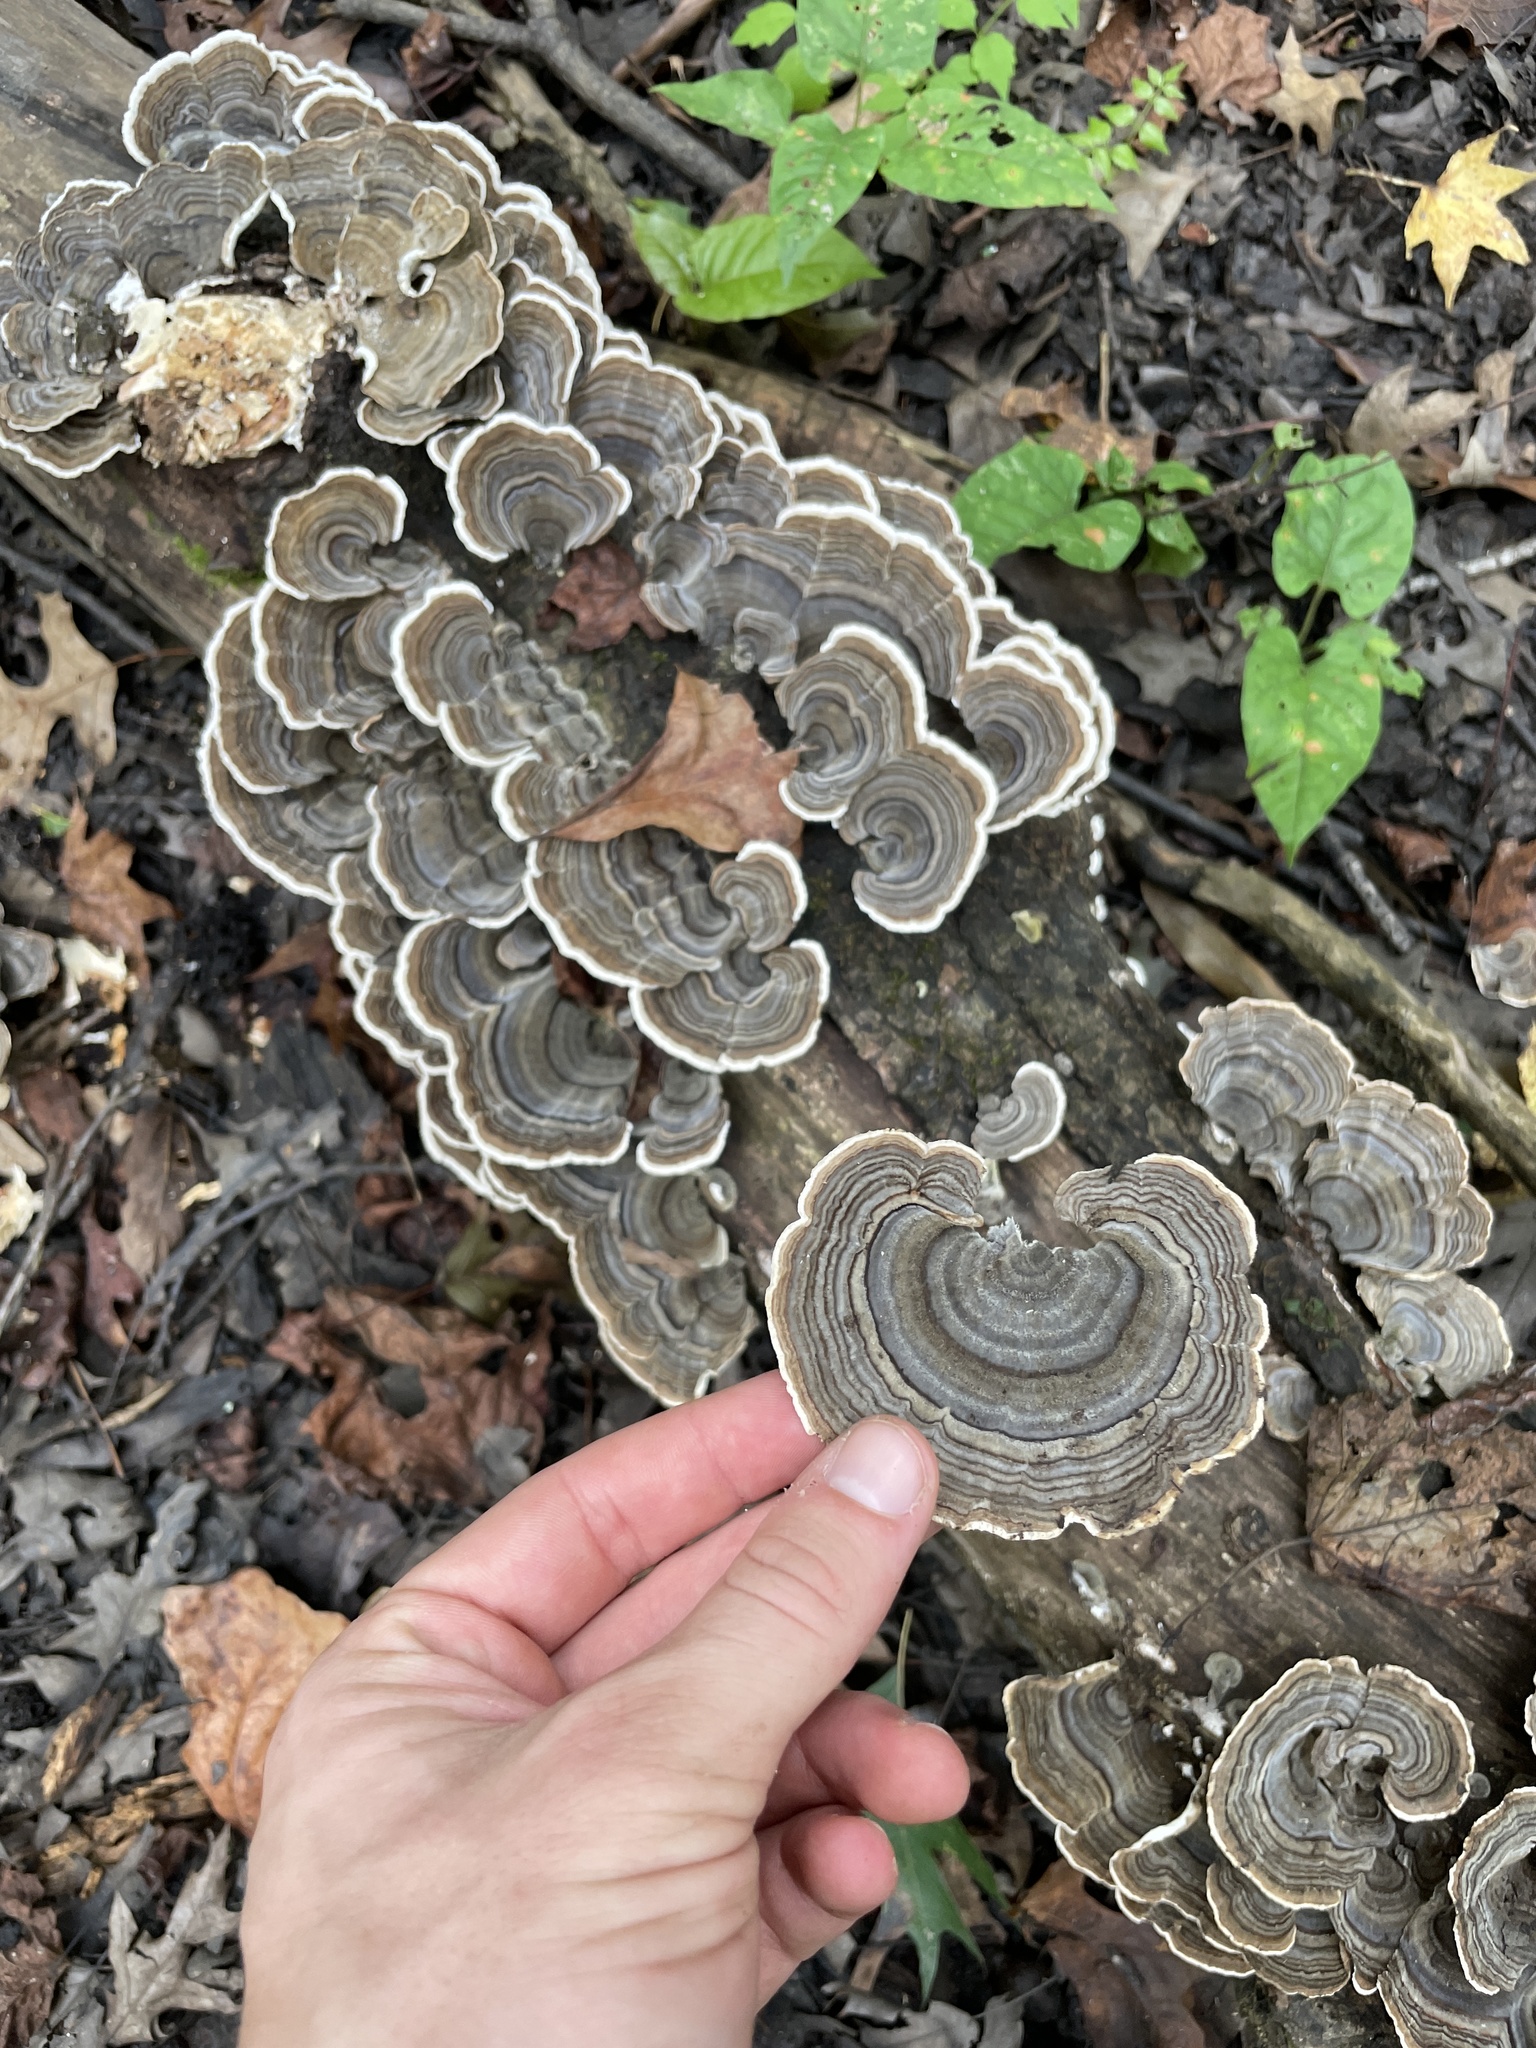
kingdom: Fungi
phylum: Basidiomycota
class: Agaricomycetes
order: Polyporales
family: Polyporaceae
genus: Trametes
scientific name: Trametes versicolor
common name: Turkeytail
